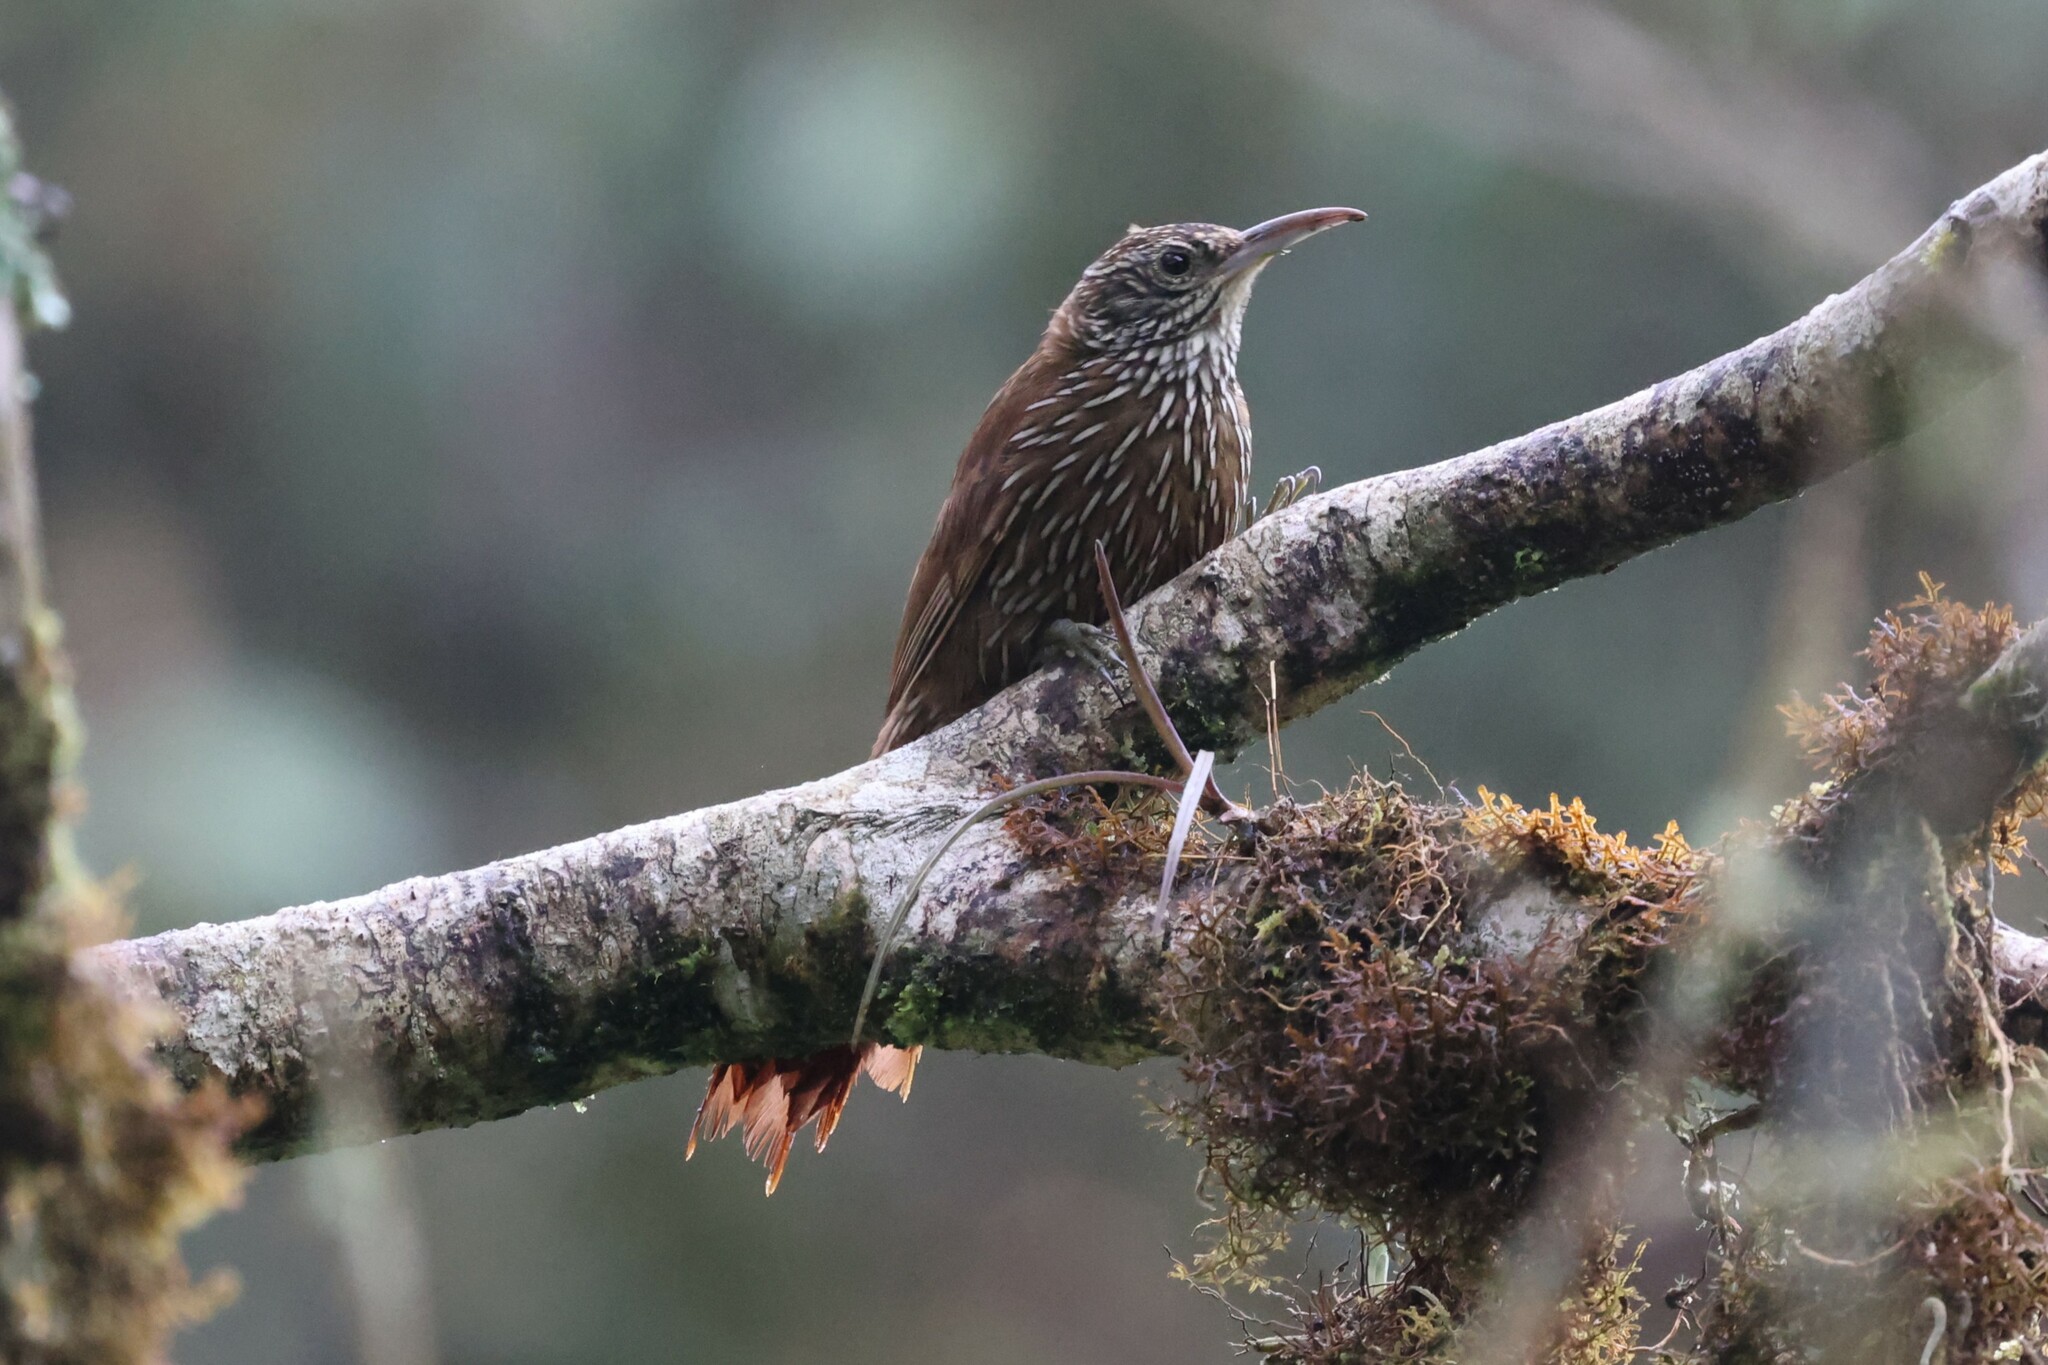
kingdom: Animalia
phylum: Chordata
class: Aves
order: Passeriformes
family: Furnariidae
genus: Lepidocolaptes
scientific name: Lepidocolaptes lacrymiger
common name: Montane woodcreeper
